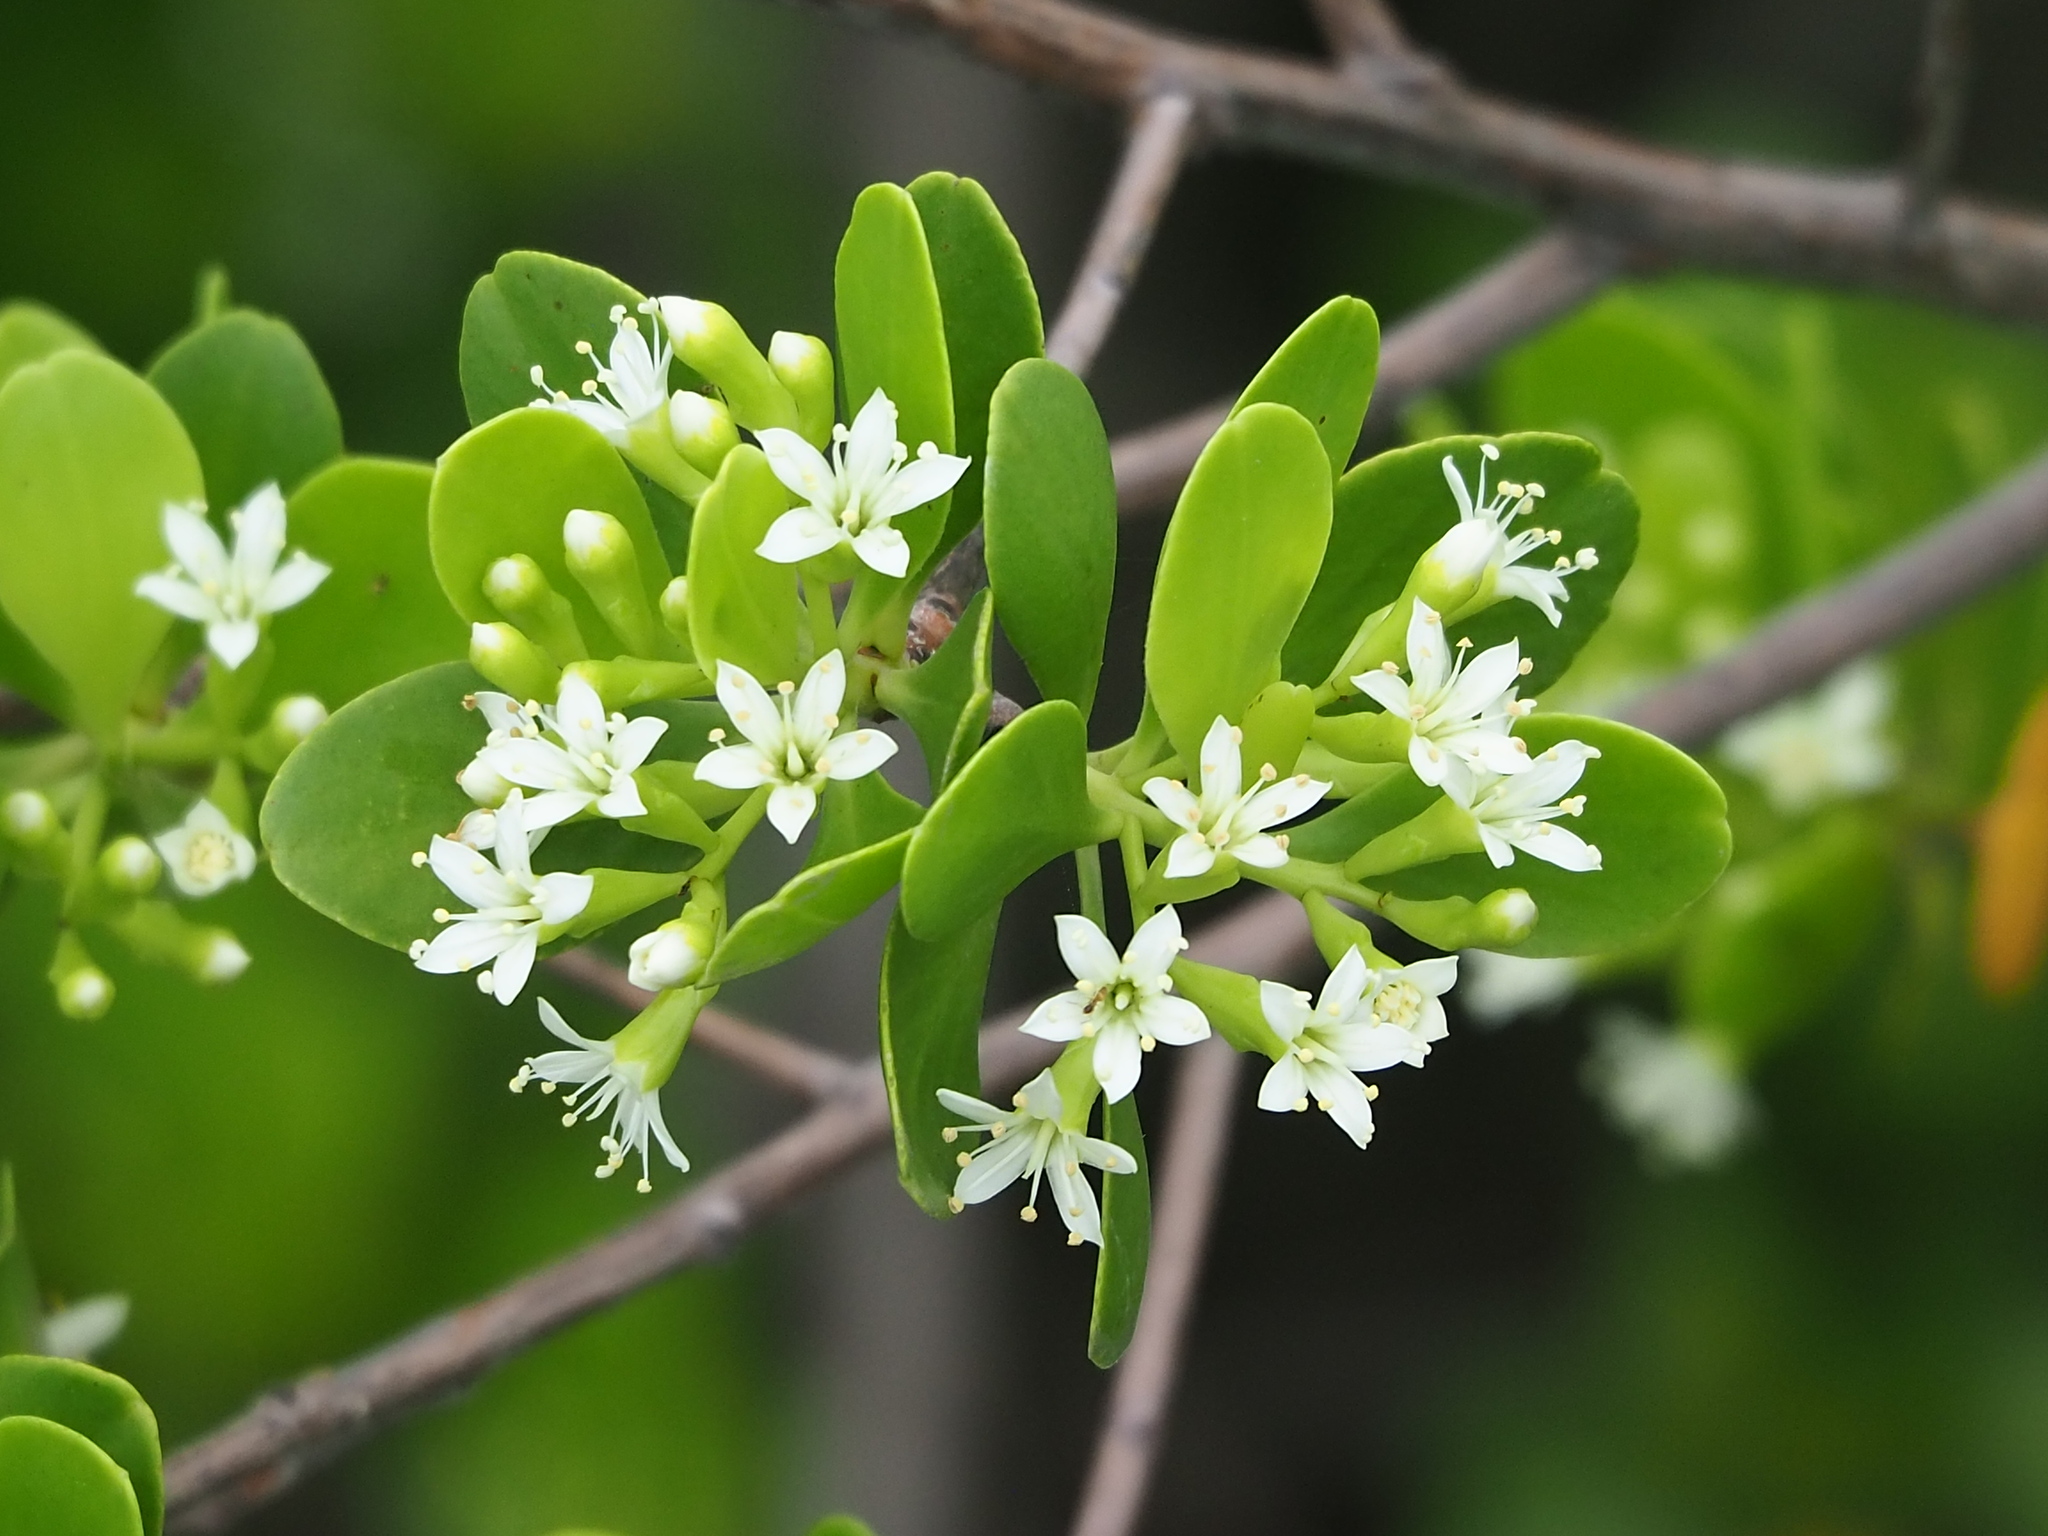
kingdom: Plantae
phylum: Tracheophyta
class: Magnoliopsida
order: Myrtales
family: Combretaceae
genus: Lumnitzera
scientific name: Lumnitzera racemosa
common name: White-flowered black mangrove
